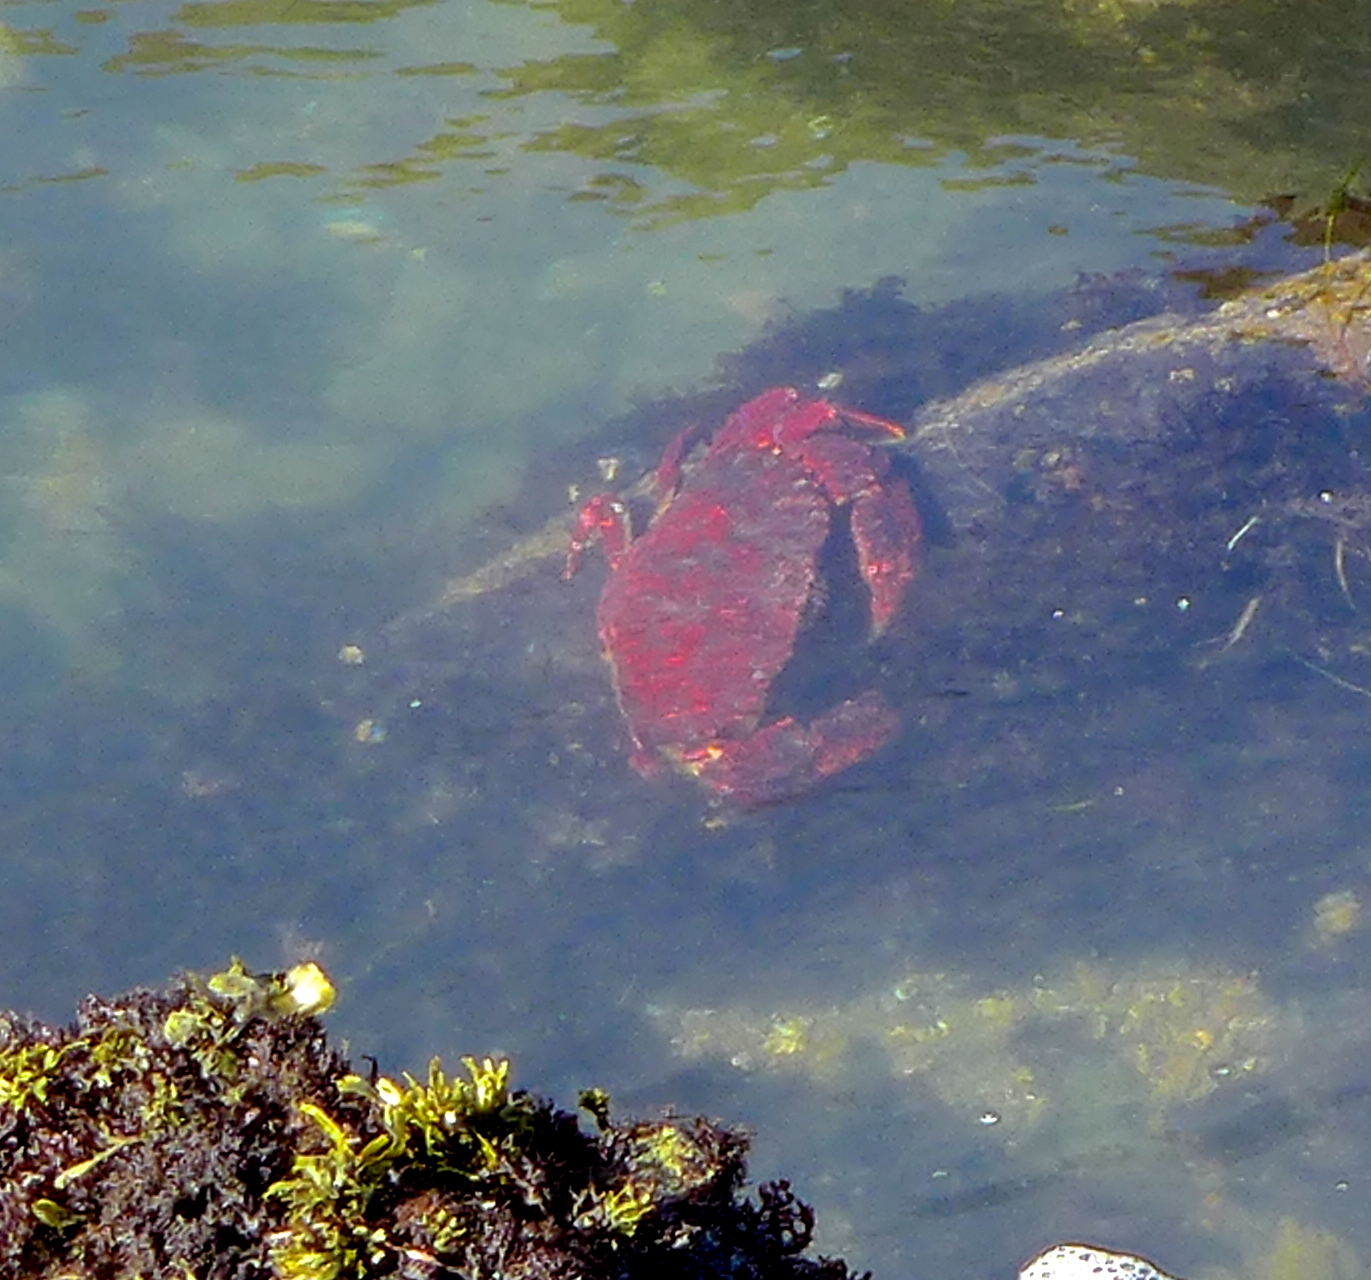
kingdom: Animalia
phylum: Arthropoda
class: Malacostraca
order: Decapoda
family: Cancridae
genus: Cancer
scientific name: Cancer productus
